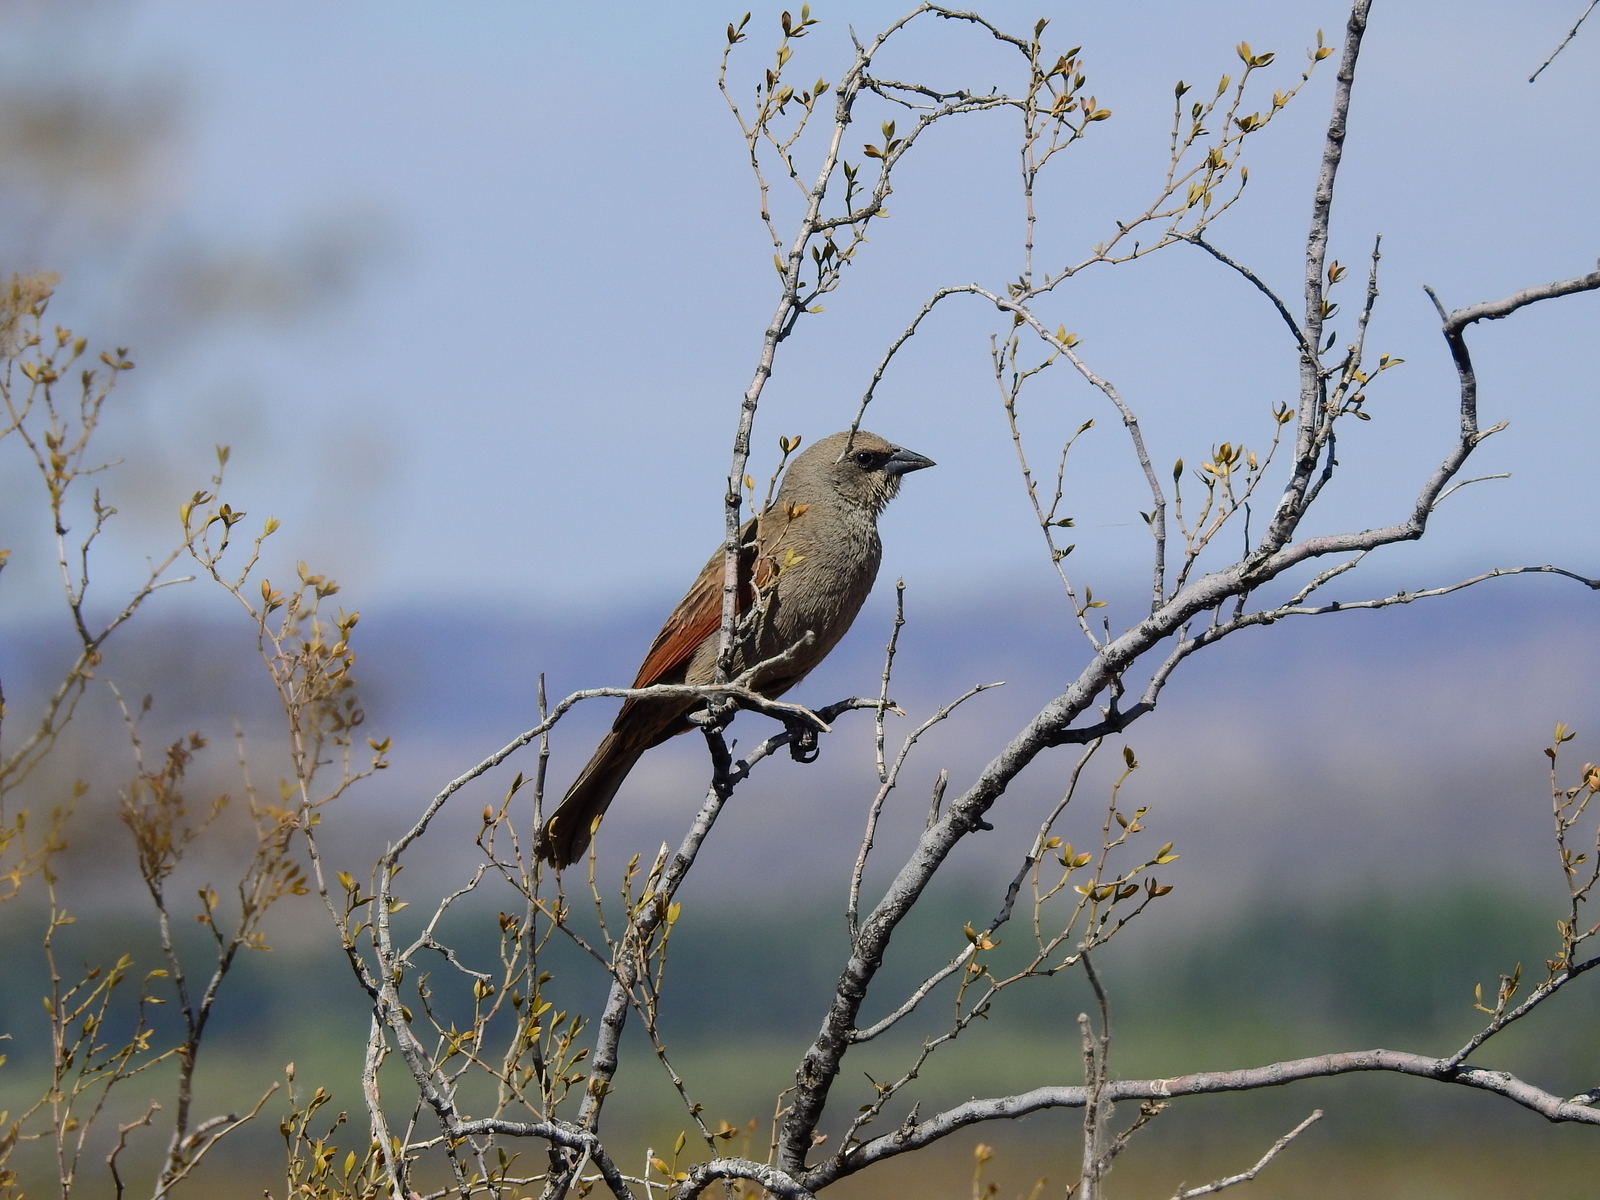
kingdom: Animalia
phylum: Chordata
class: Aves
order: Passeriformes
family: Icteridae
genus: Agelaioides
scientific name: Agelaioides badius
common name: Baywing
